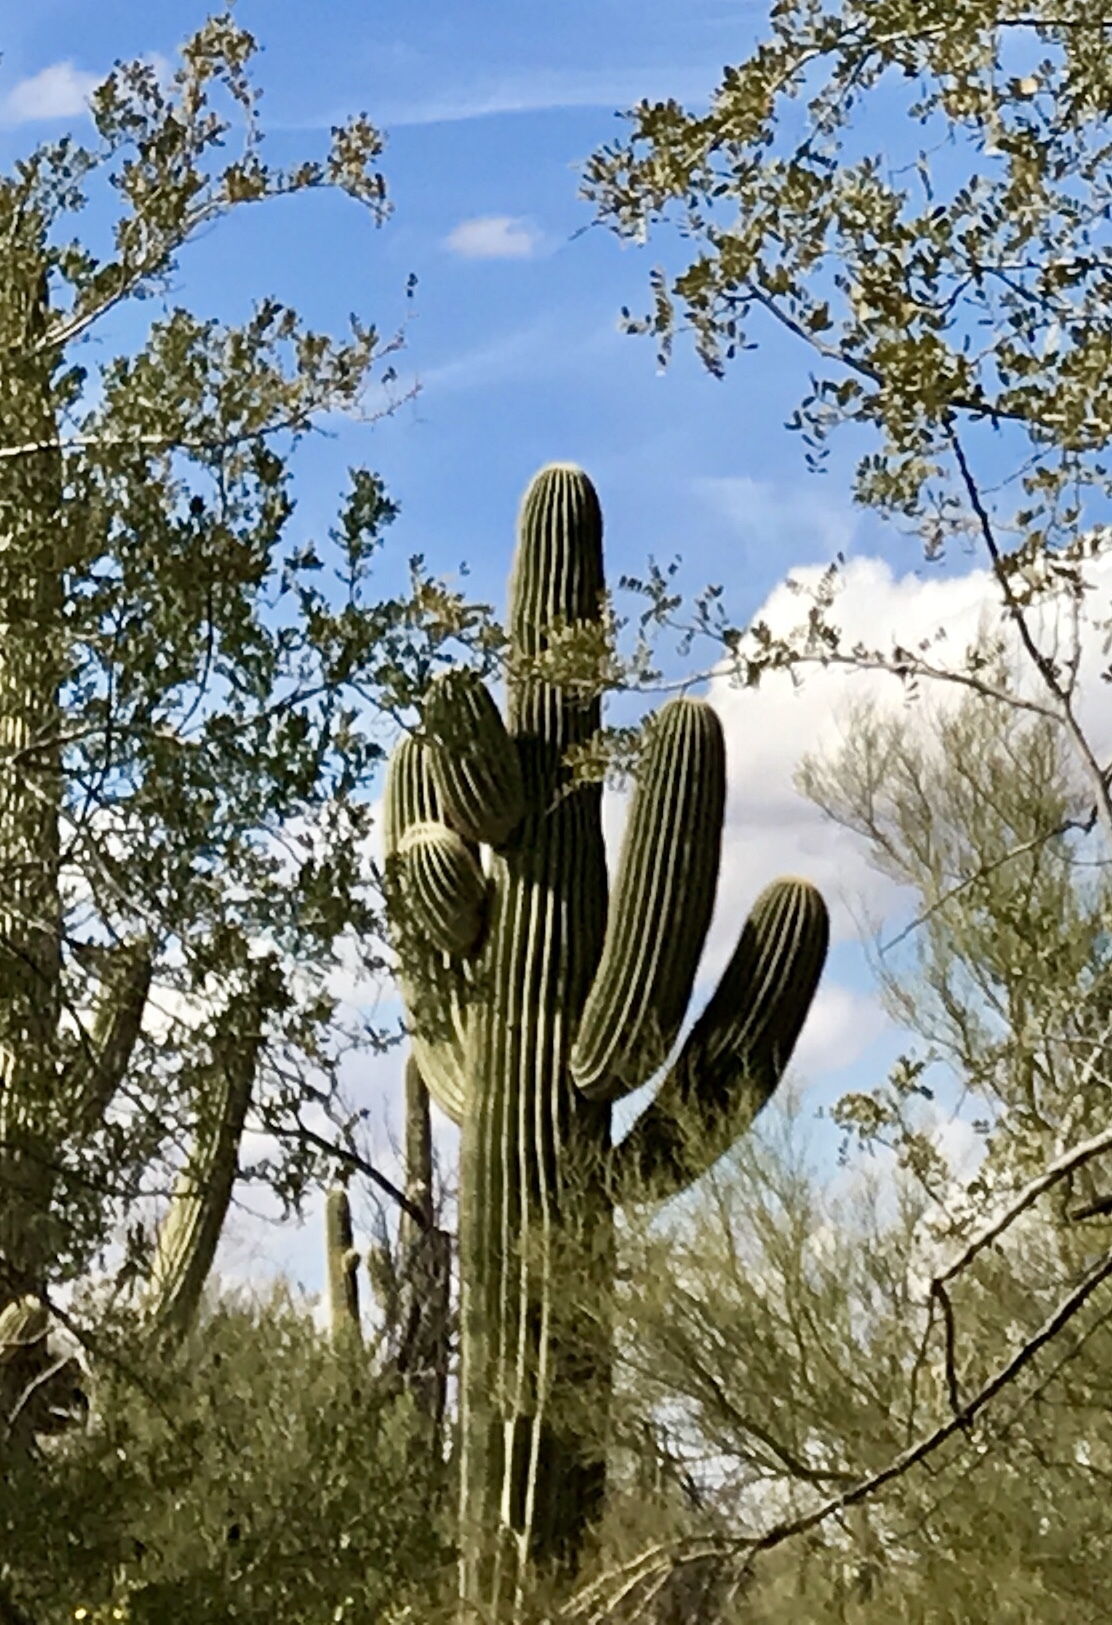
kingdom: Plantae
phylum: Tracheophyta
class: Magnoliopsida
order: Caryophyllales
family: Cactaceae
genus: Carnegiea
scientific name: Carnegiea gigantea
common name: Saguaro
